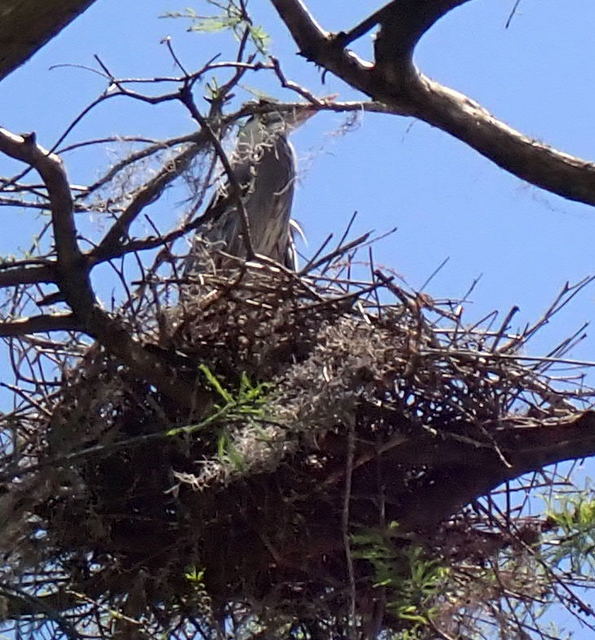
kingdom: Animalia
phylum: Chordata
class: Aves
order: Pelecaniformes
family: Ardeidae
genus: Ardea
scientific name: Ardea herodias
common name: Great blue heron
